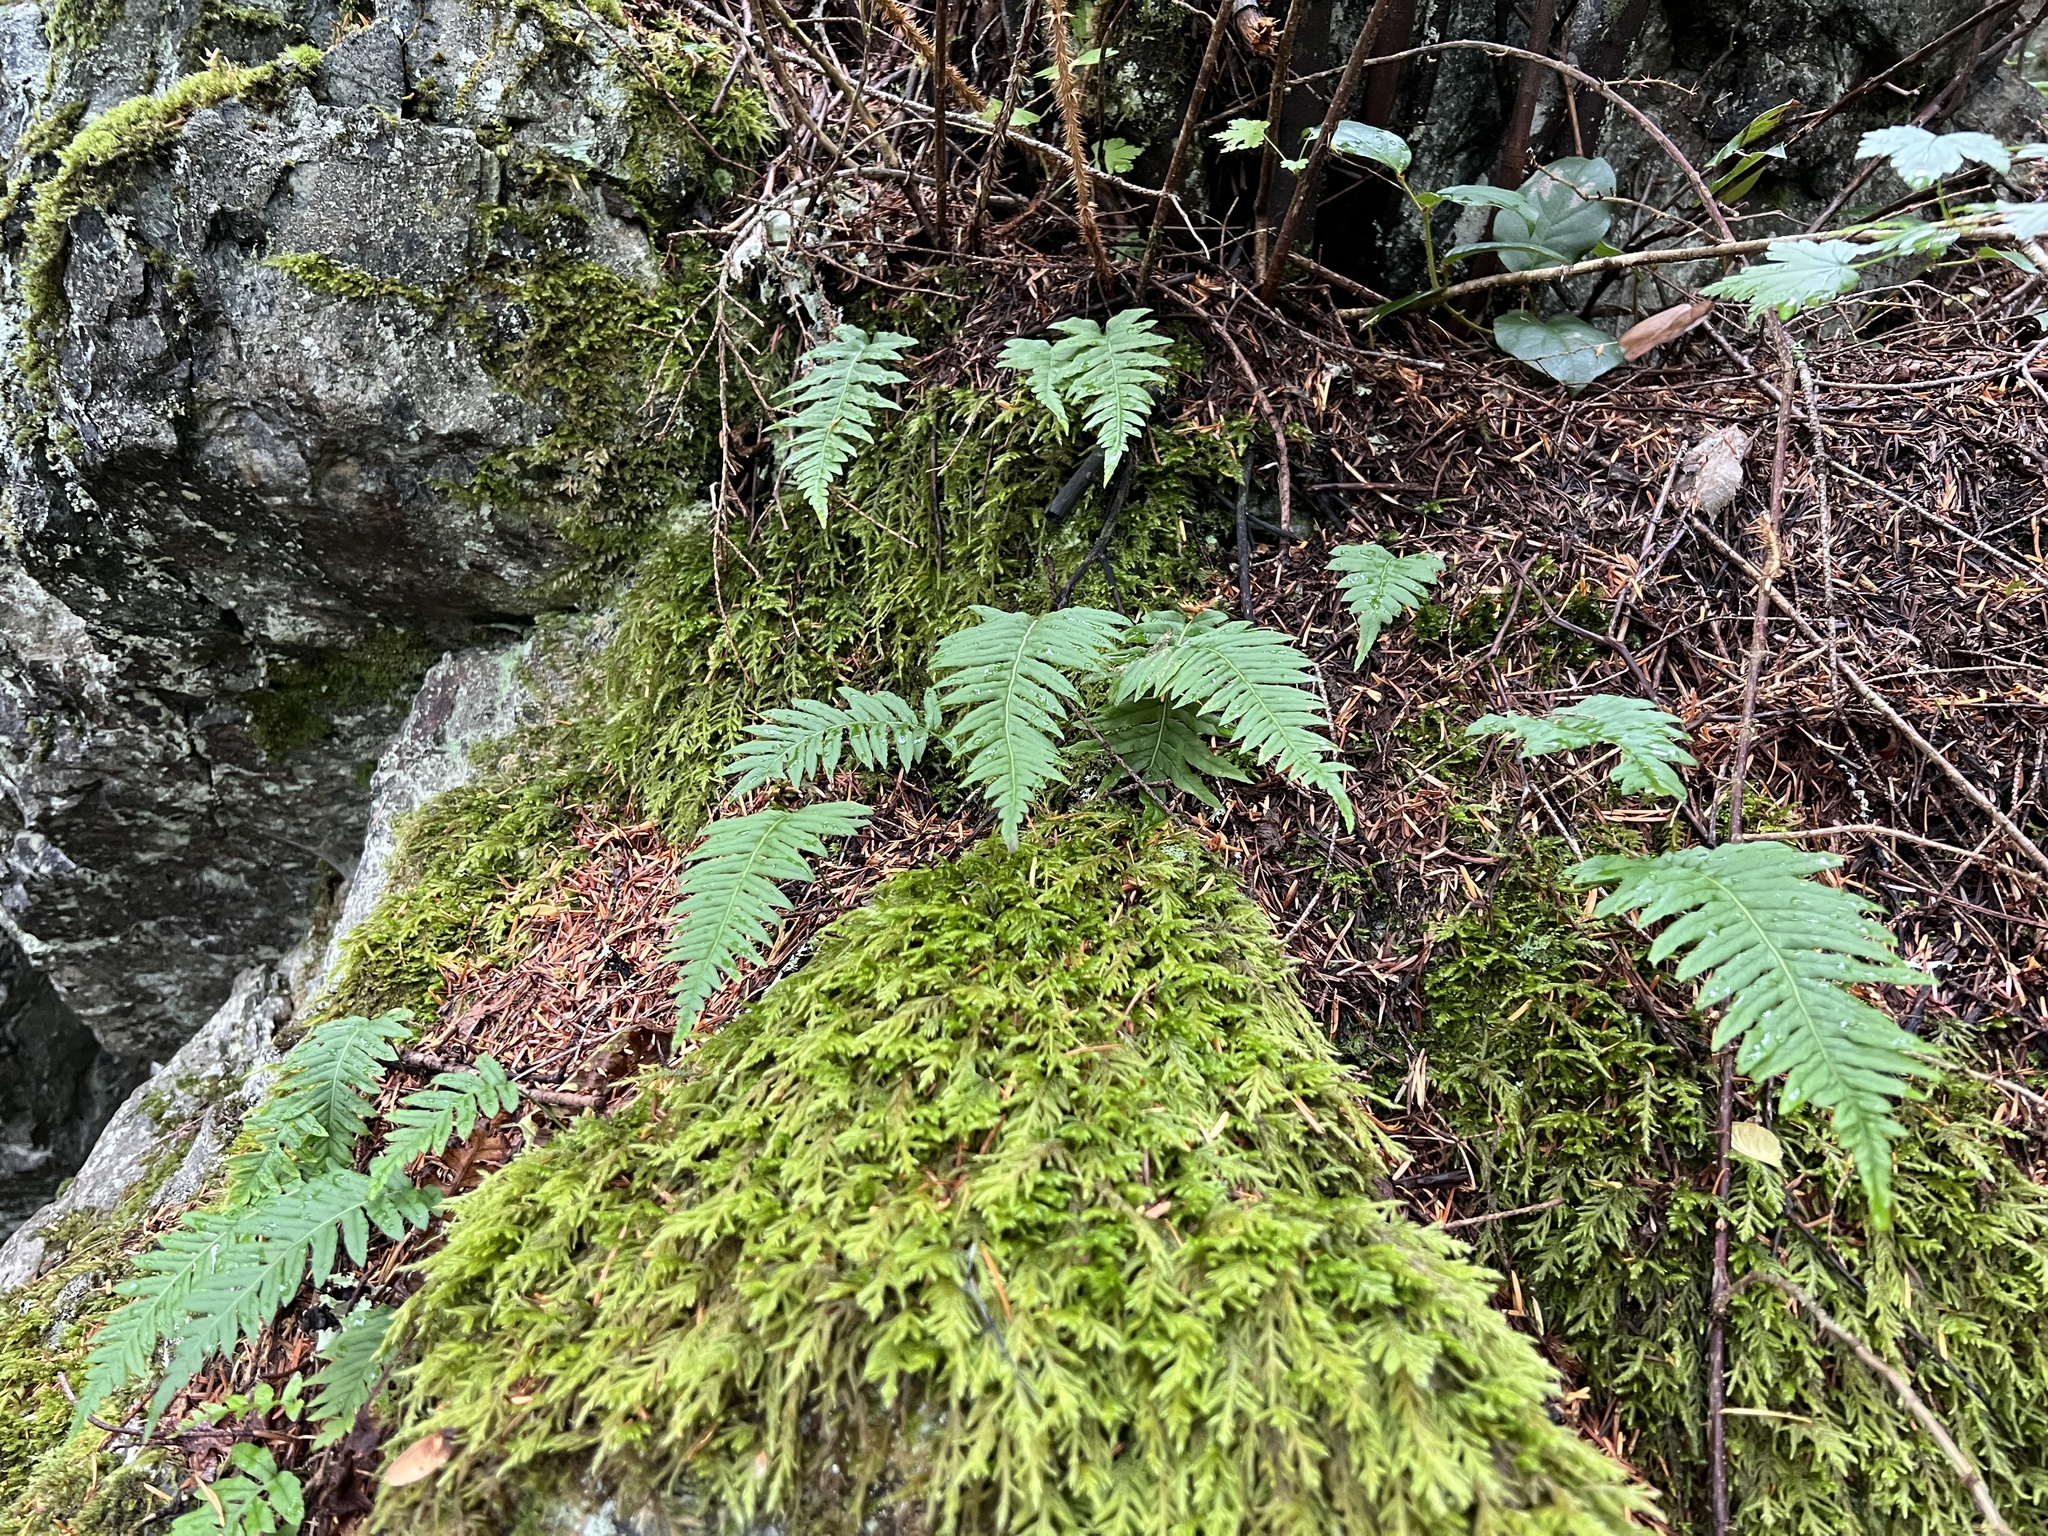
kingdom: Plantae
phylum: Tracheophyta
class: Polypodiopsida
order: Polypodiales
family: Polypodiaceae
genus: Polypodium
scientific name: Polypodium glycyrrhiza
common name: Licorice fern
